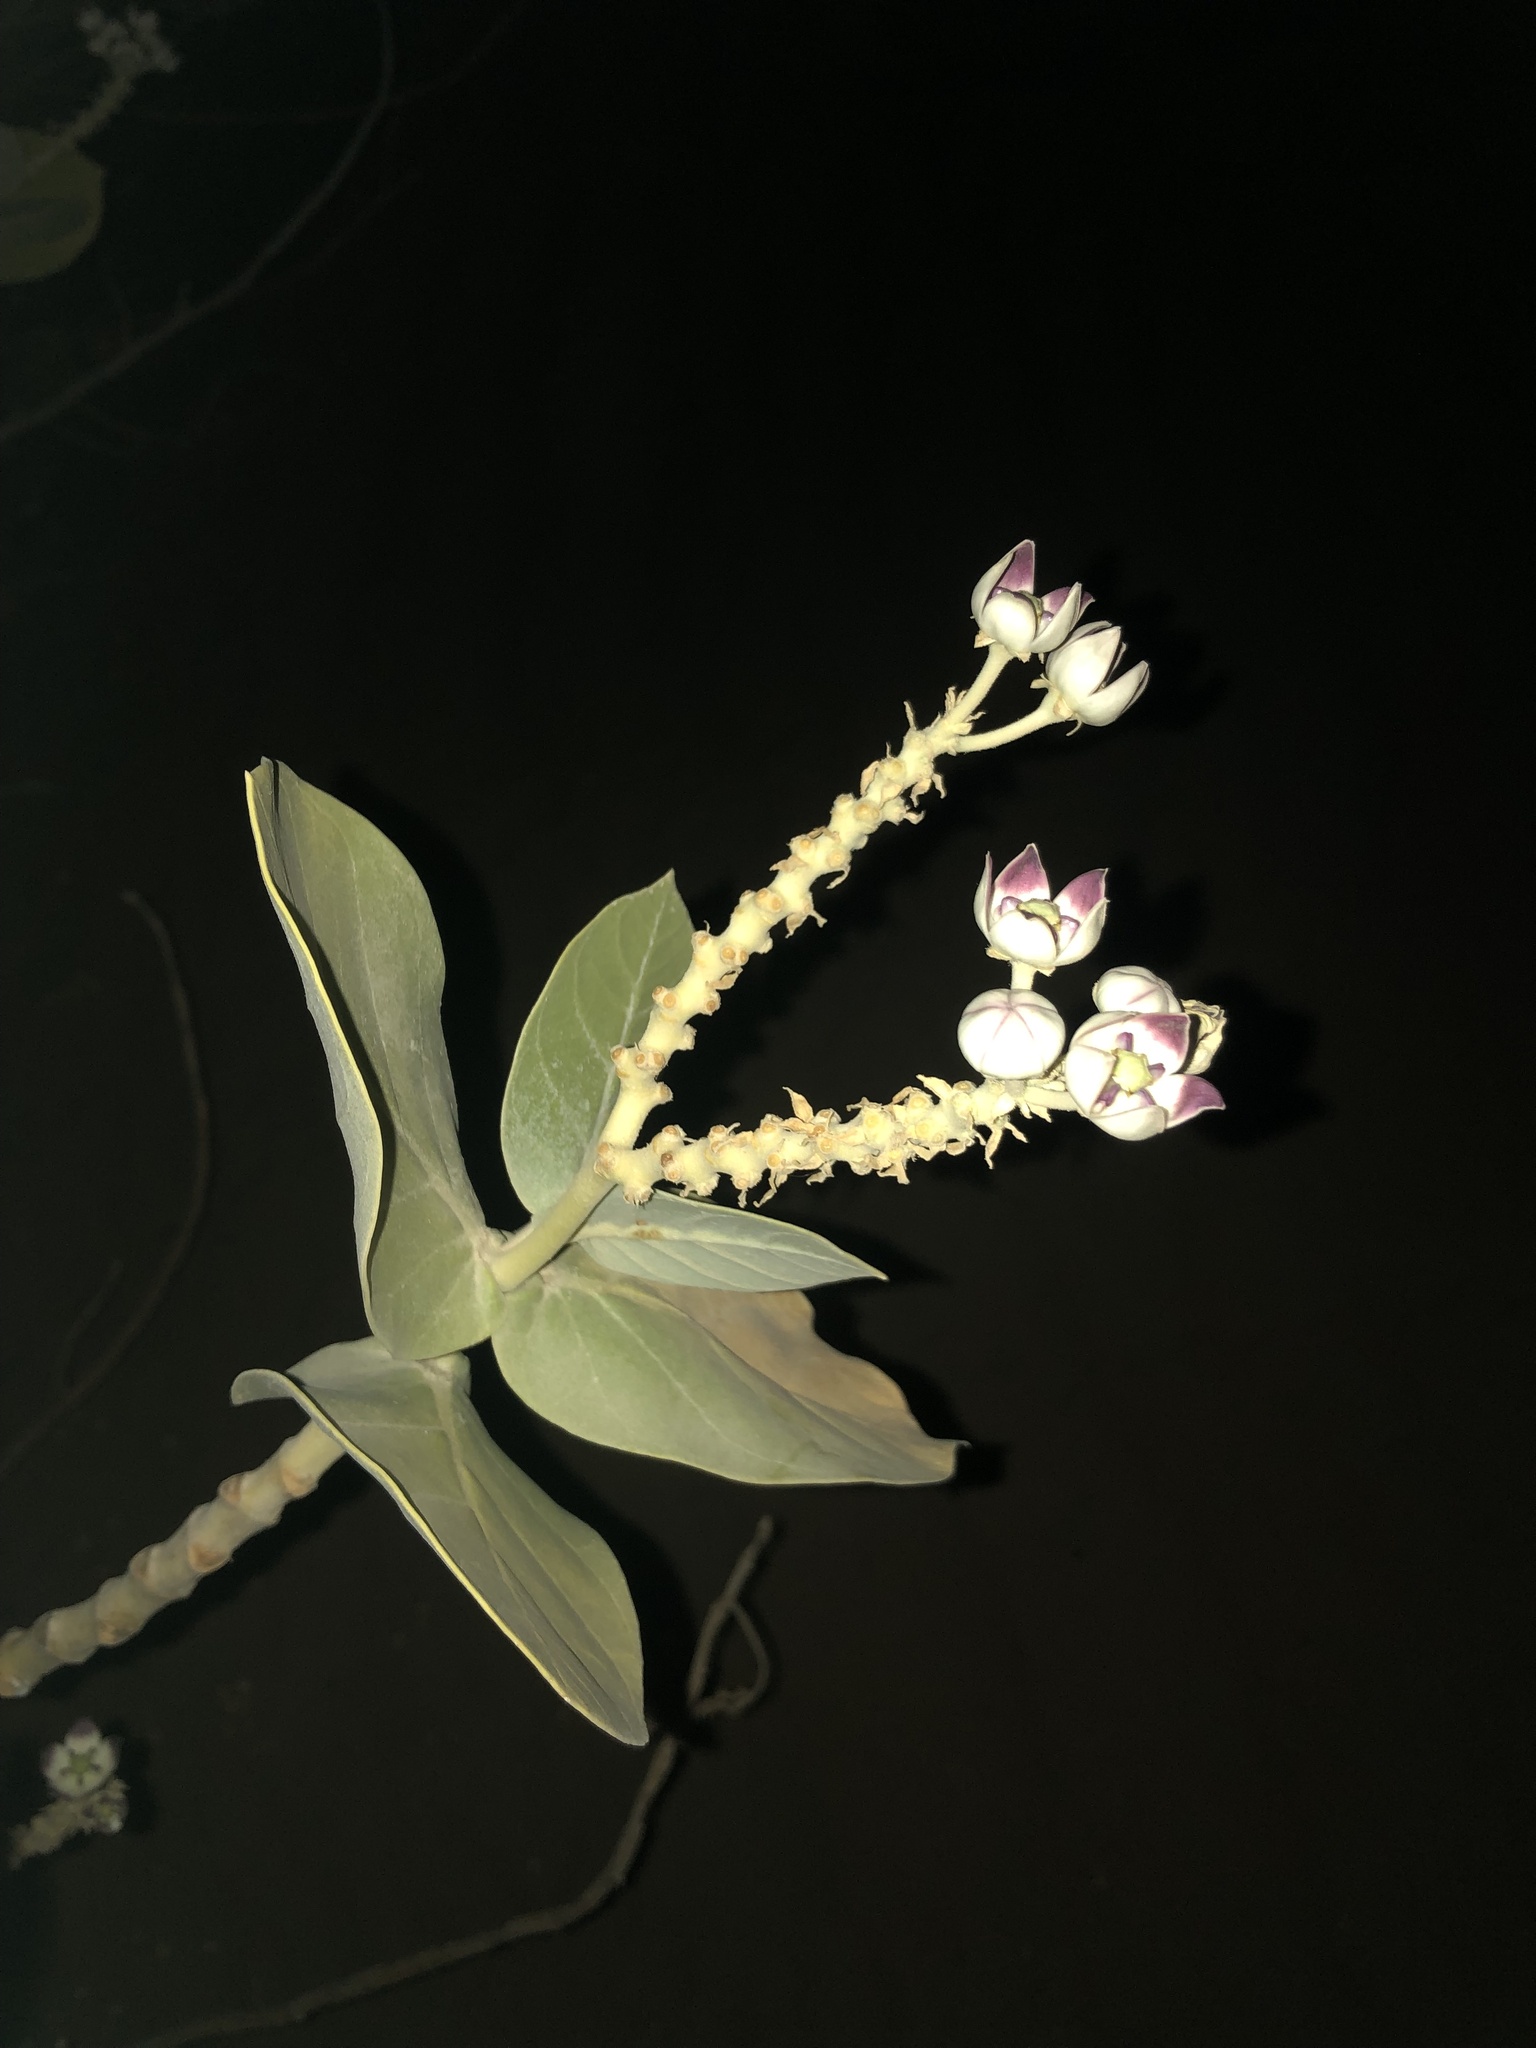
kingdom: Plantae
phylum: Tracheophyta
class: Magnoliopsida
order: Gentianales
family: Apocynaceae
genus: Calotropis
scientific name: Calotropis procera
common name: Roostertree
